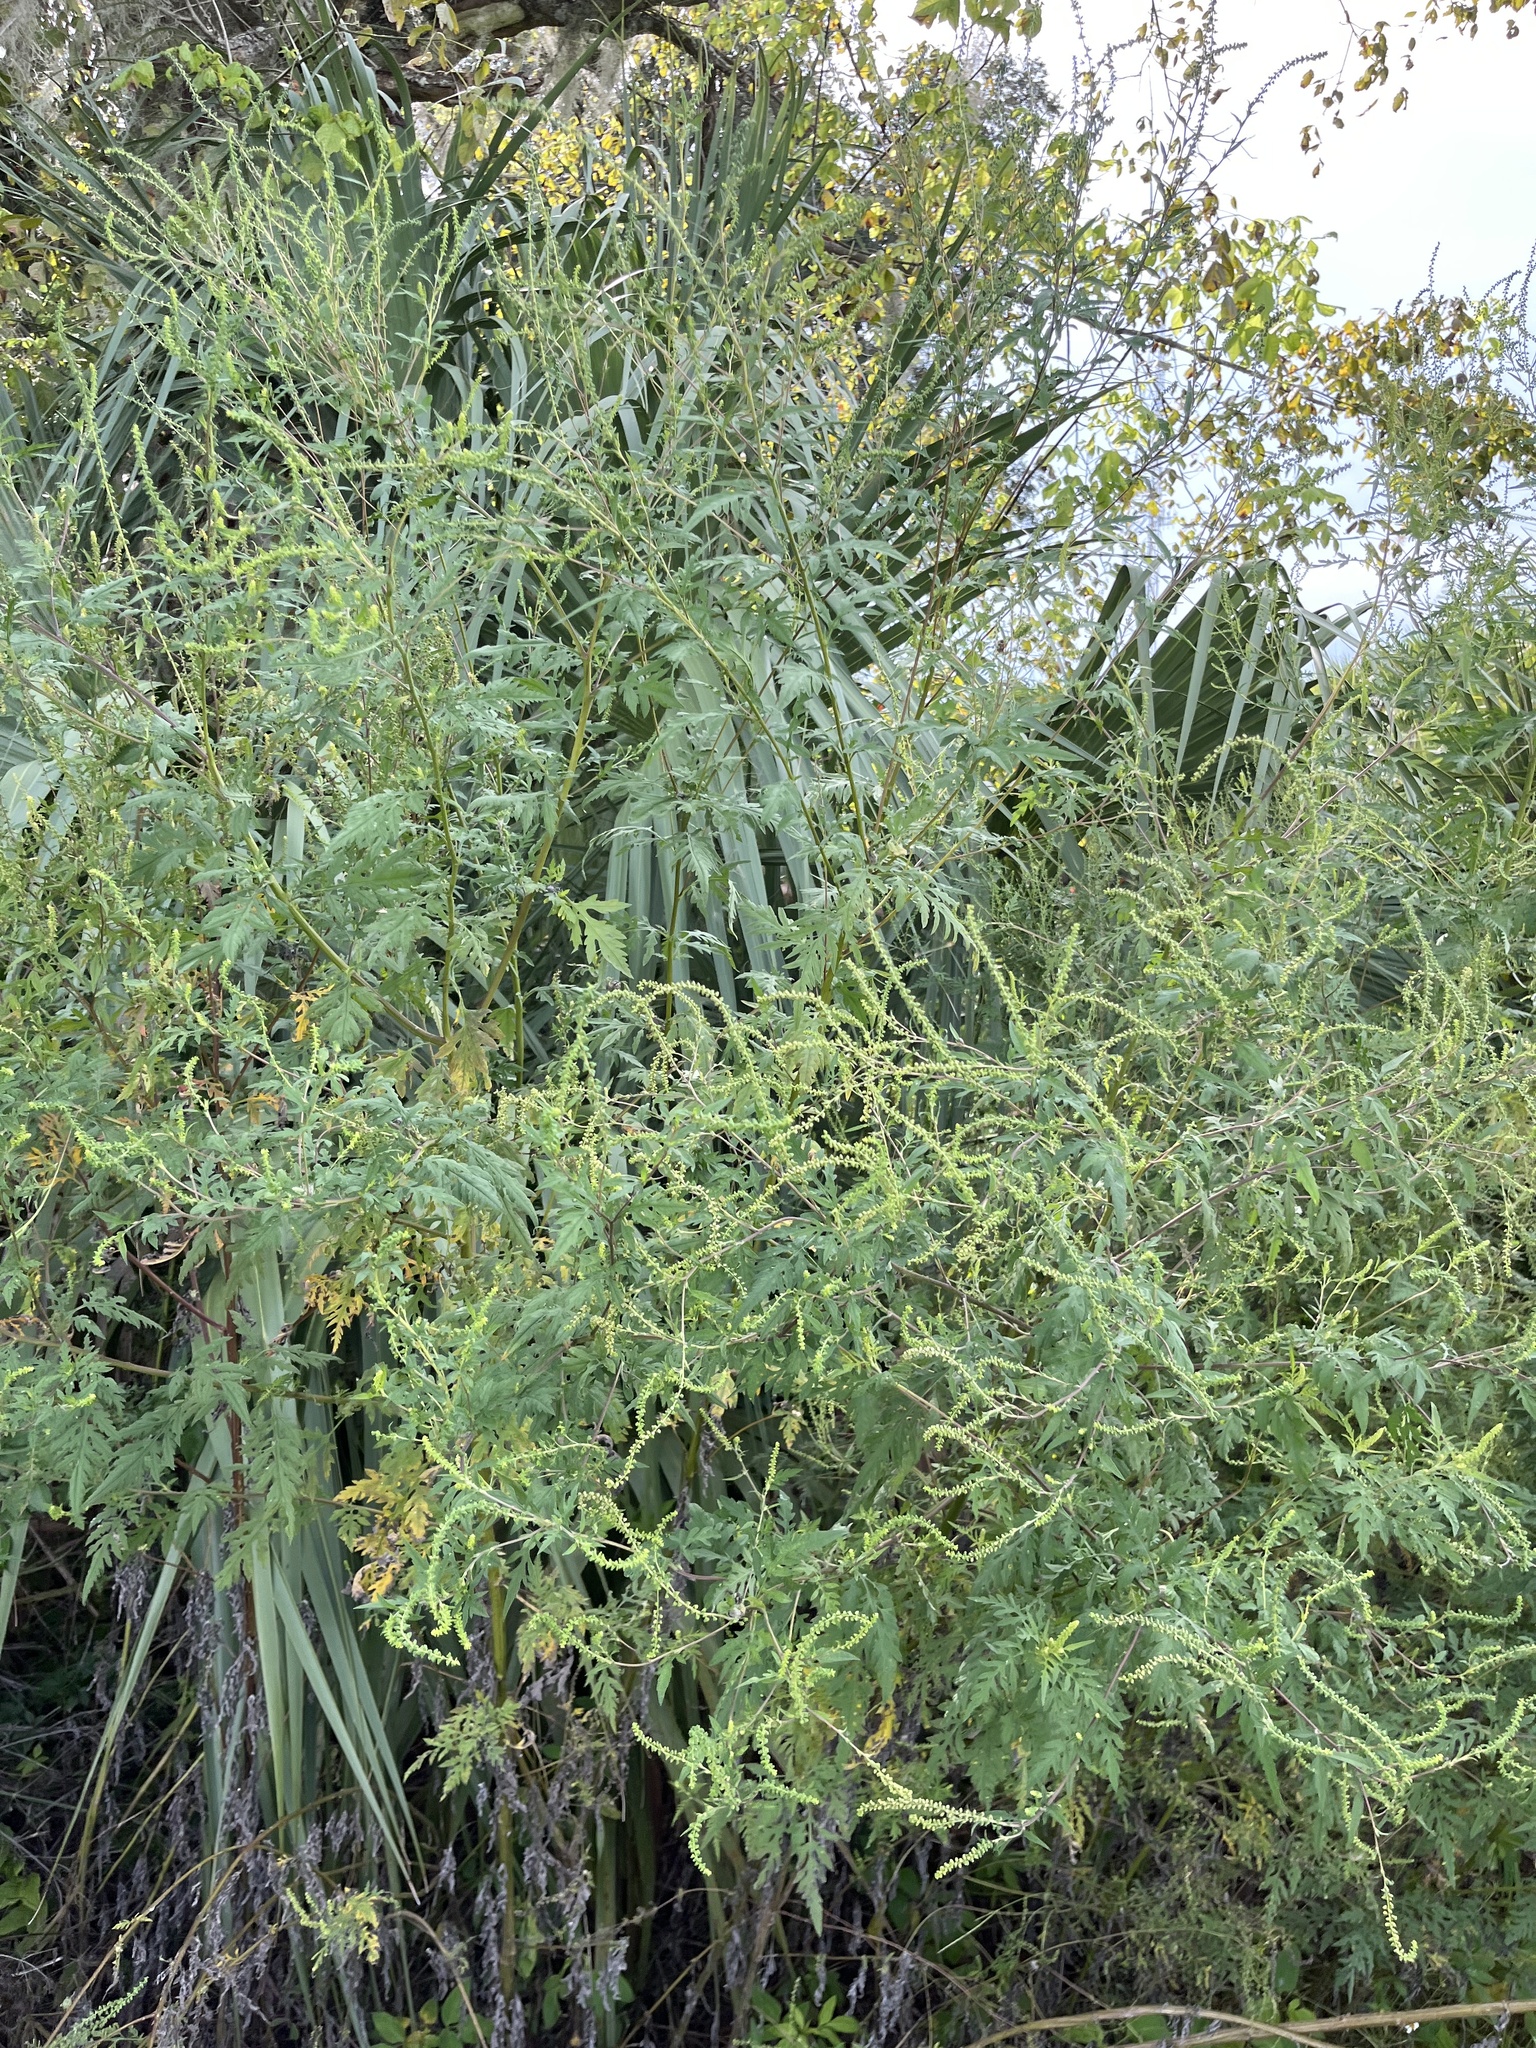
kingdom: Plantae
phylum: Tracheophyta
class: Magnoliopsida
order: Asterales
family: Asteraceae
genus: Ambrosia
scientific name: Ambrosia artemisiifolia
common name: Annual ragweed
